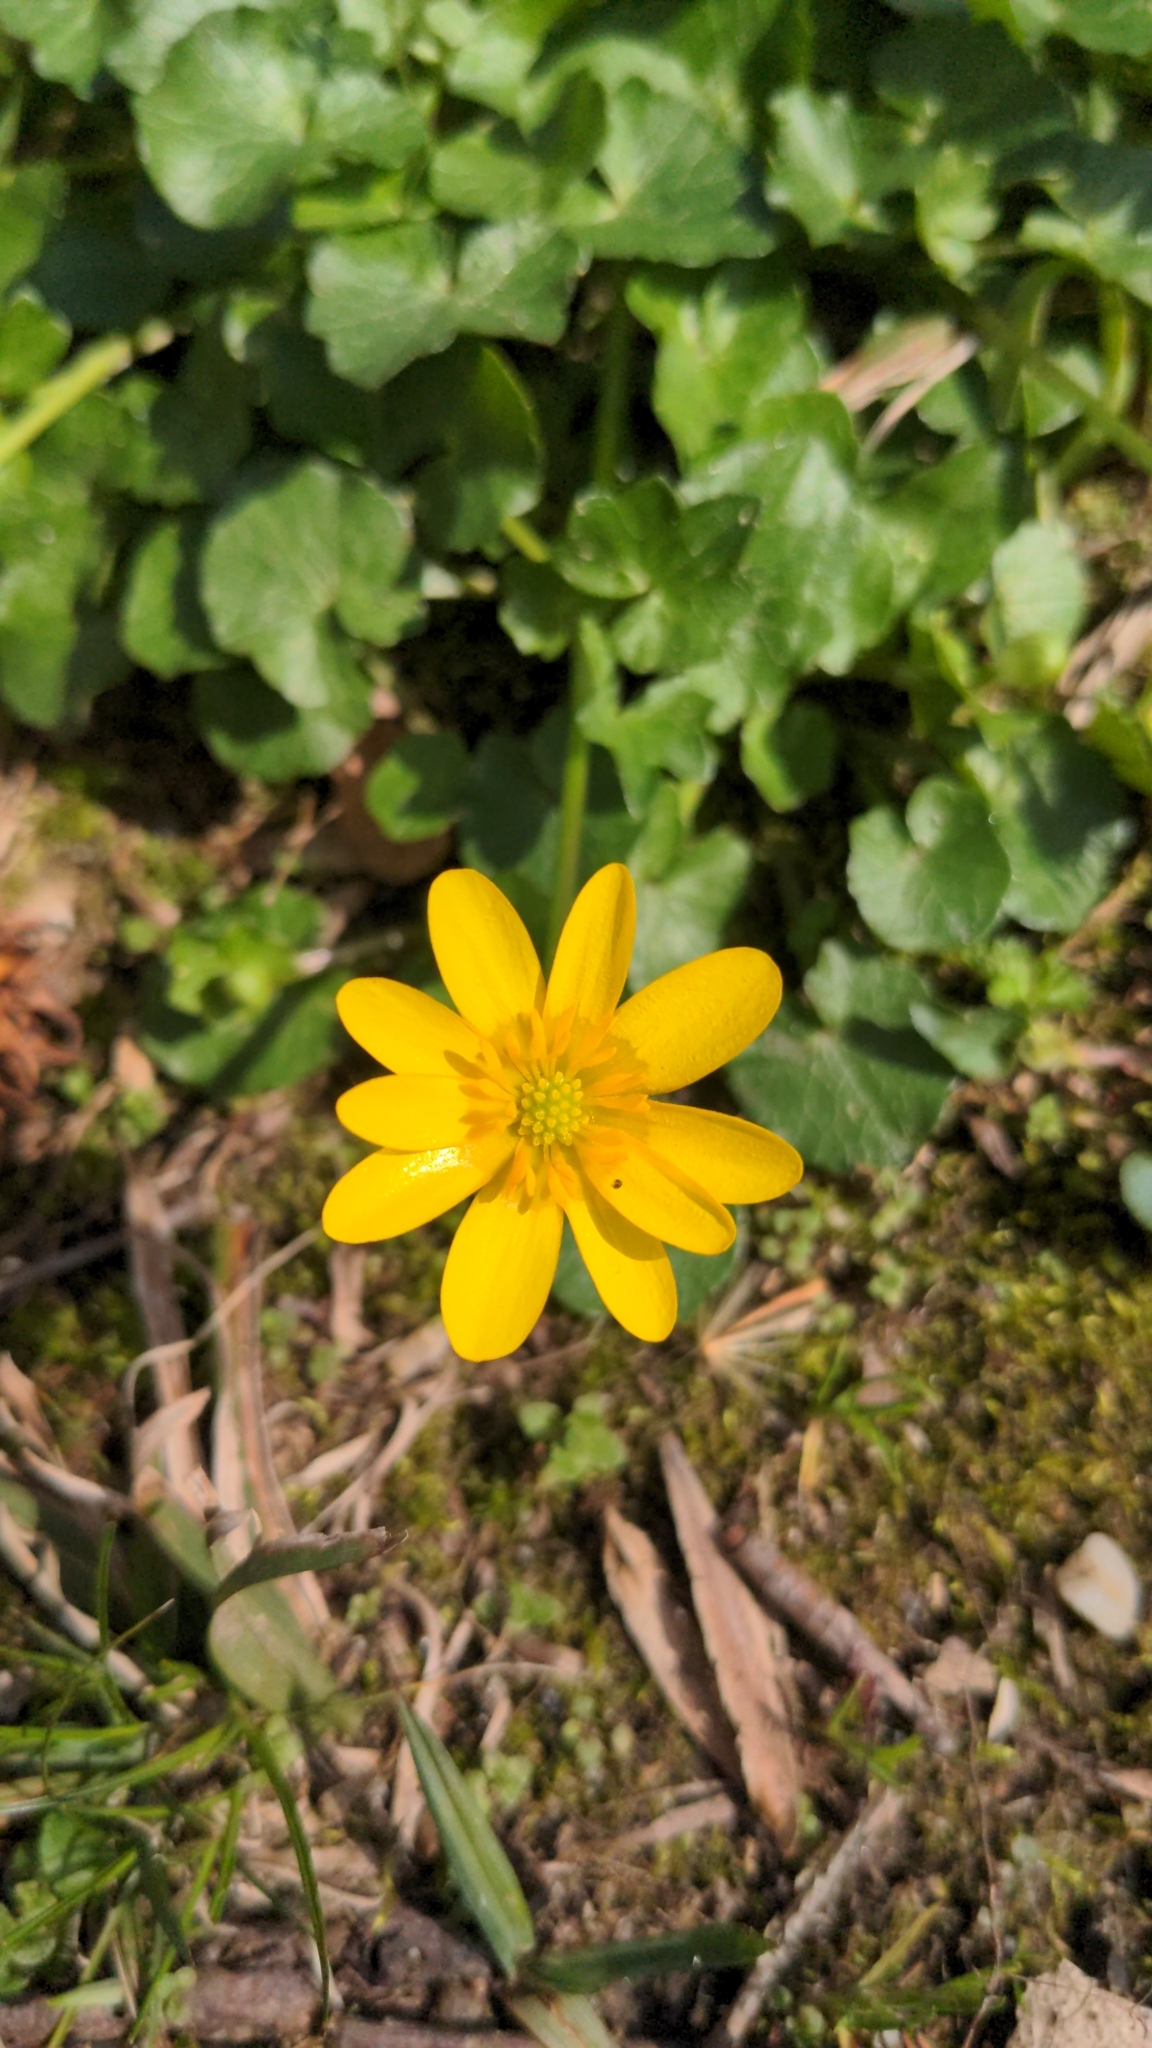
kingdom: Plantae
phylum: Tracheophyta
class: Magnoliopsida
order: Ranunculales
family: Ranunculaceae
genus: Ficaria
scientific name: Ficaria verna
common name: Lesser celandine
